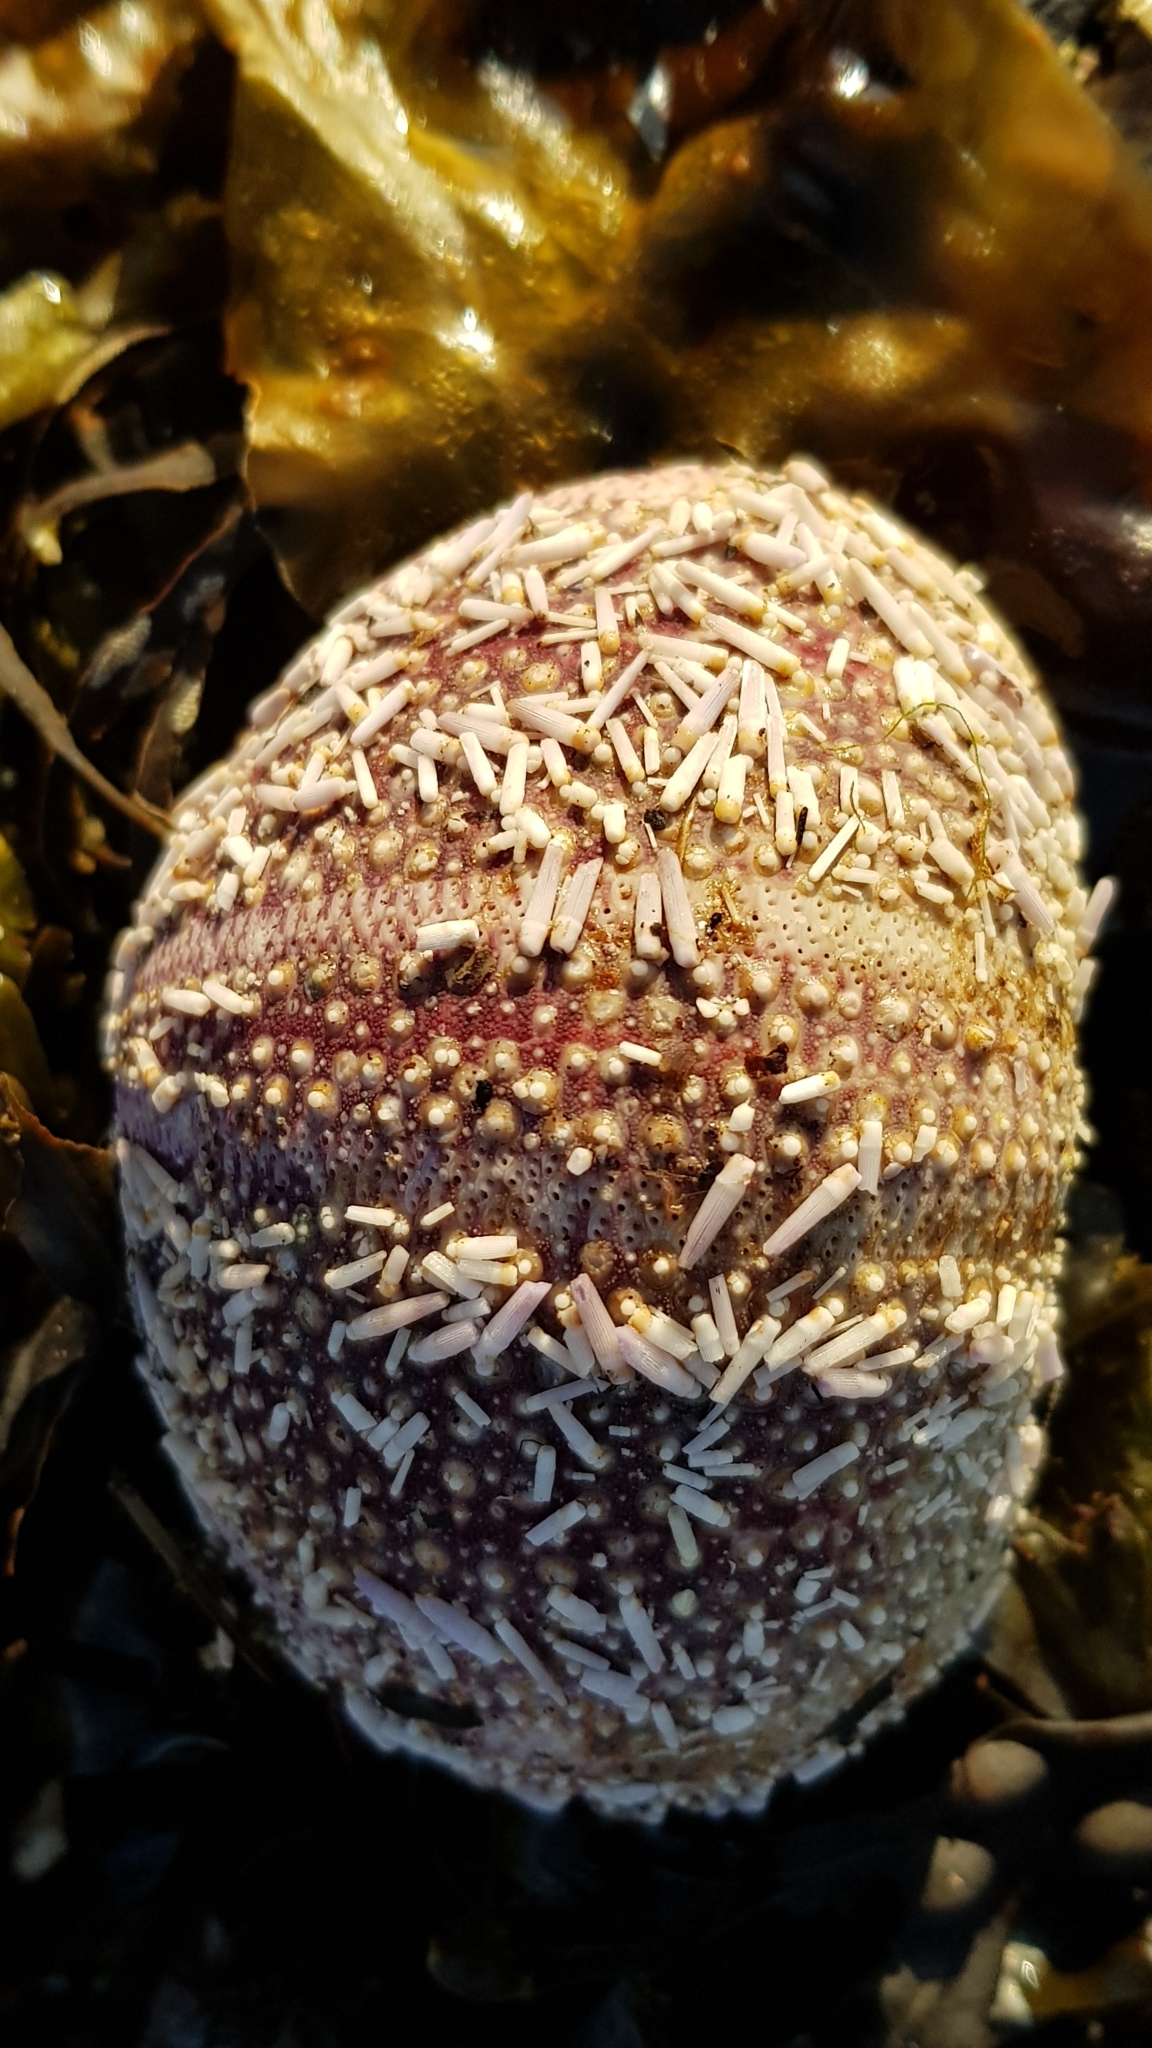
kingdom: Animalia
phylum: Echinodermata
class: Echinoidea
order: Camarodonta
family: Echinidae
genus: Echinus
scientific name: Echinus esculentus
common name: Edible sea urchin
